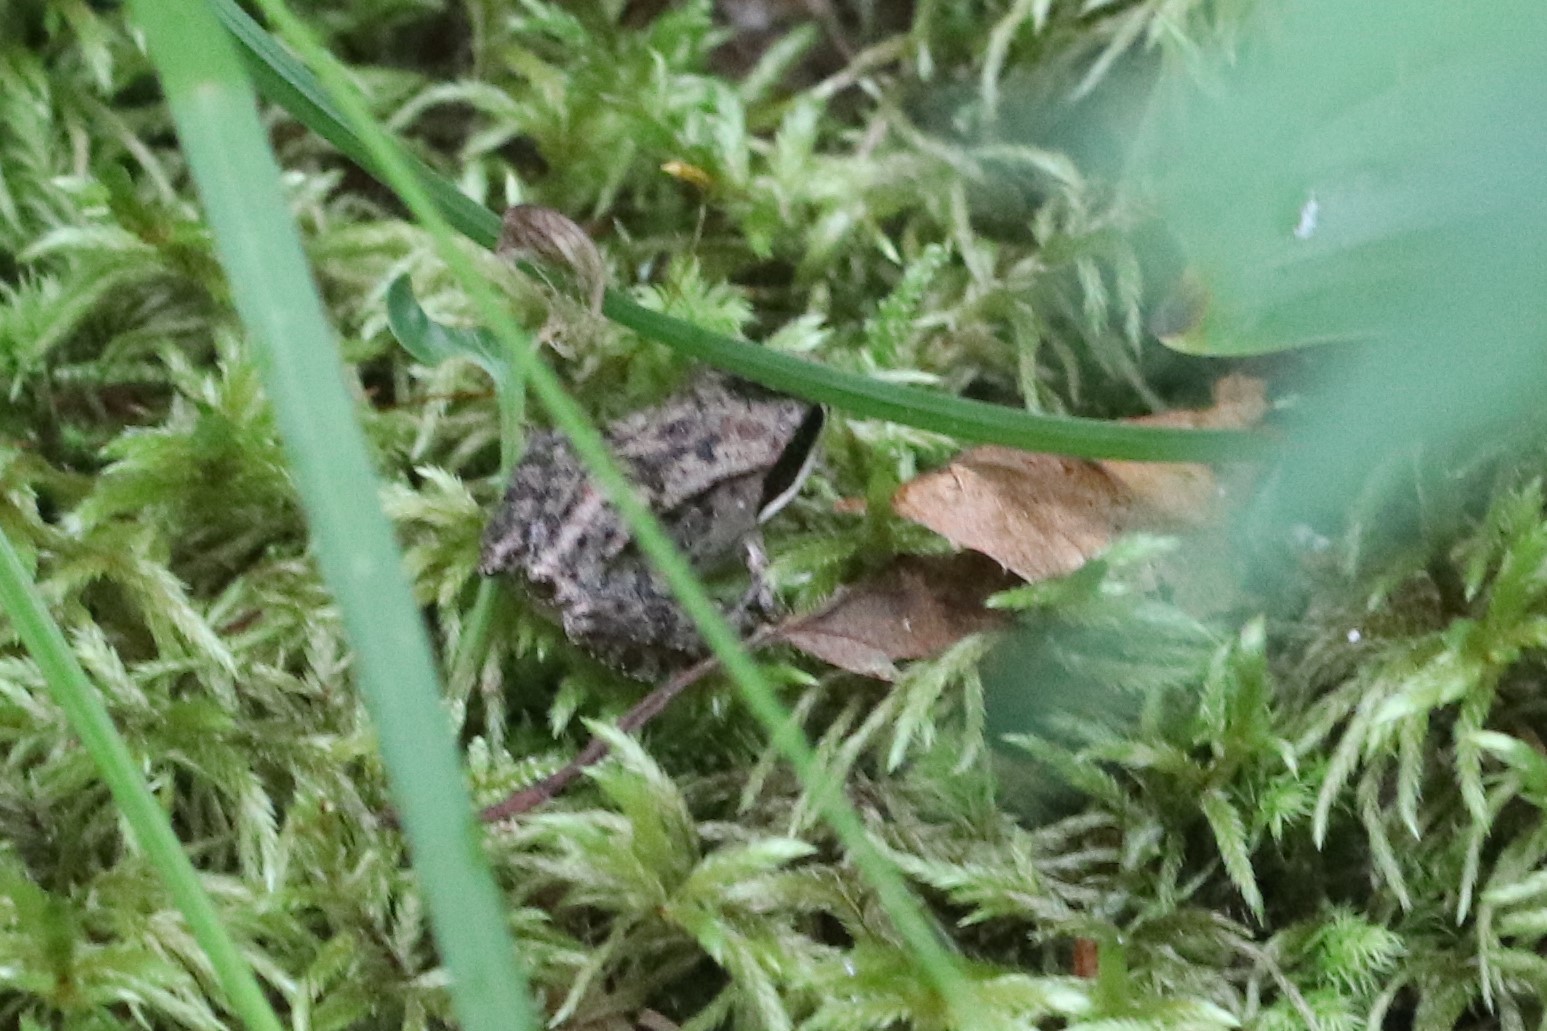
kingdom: Animalia
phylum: Chordata
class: Amphibia
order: Anura
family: Ranidae
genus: Lithobates
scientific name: Lithobates sylvaticus
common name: Wood frog
